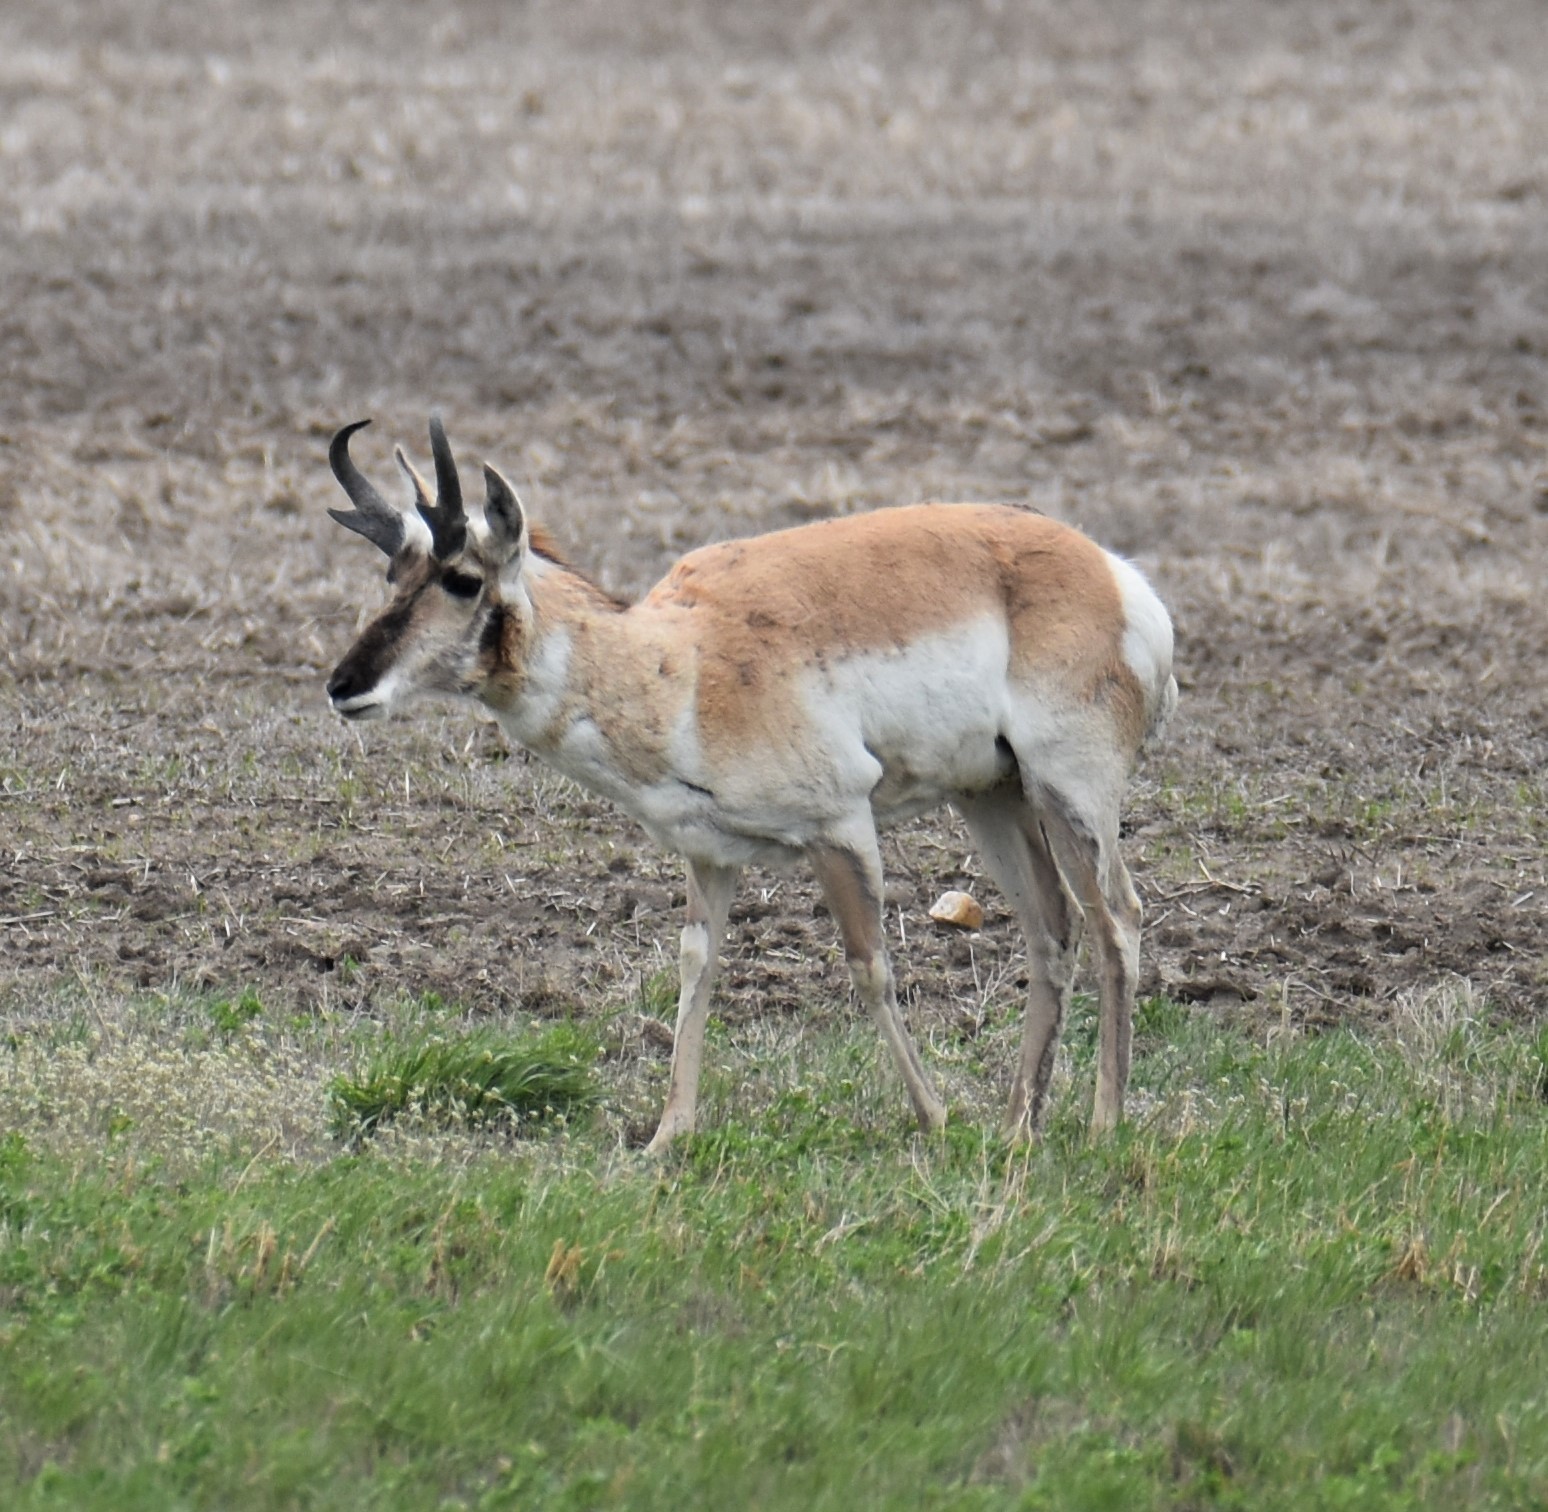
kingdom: Animalia
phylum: Chordata
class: Mammalia
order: Artiodactyla
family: Antilocapridae
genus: Antilocapra
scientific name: Antilocapra americana
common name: Pronghorn
